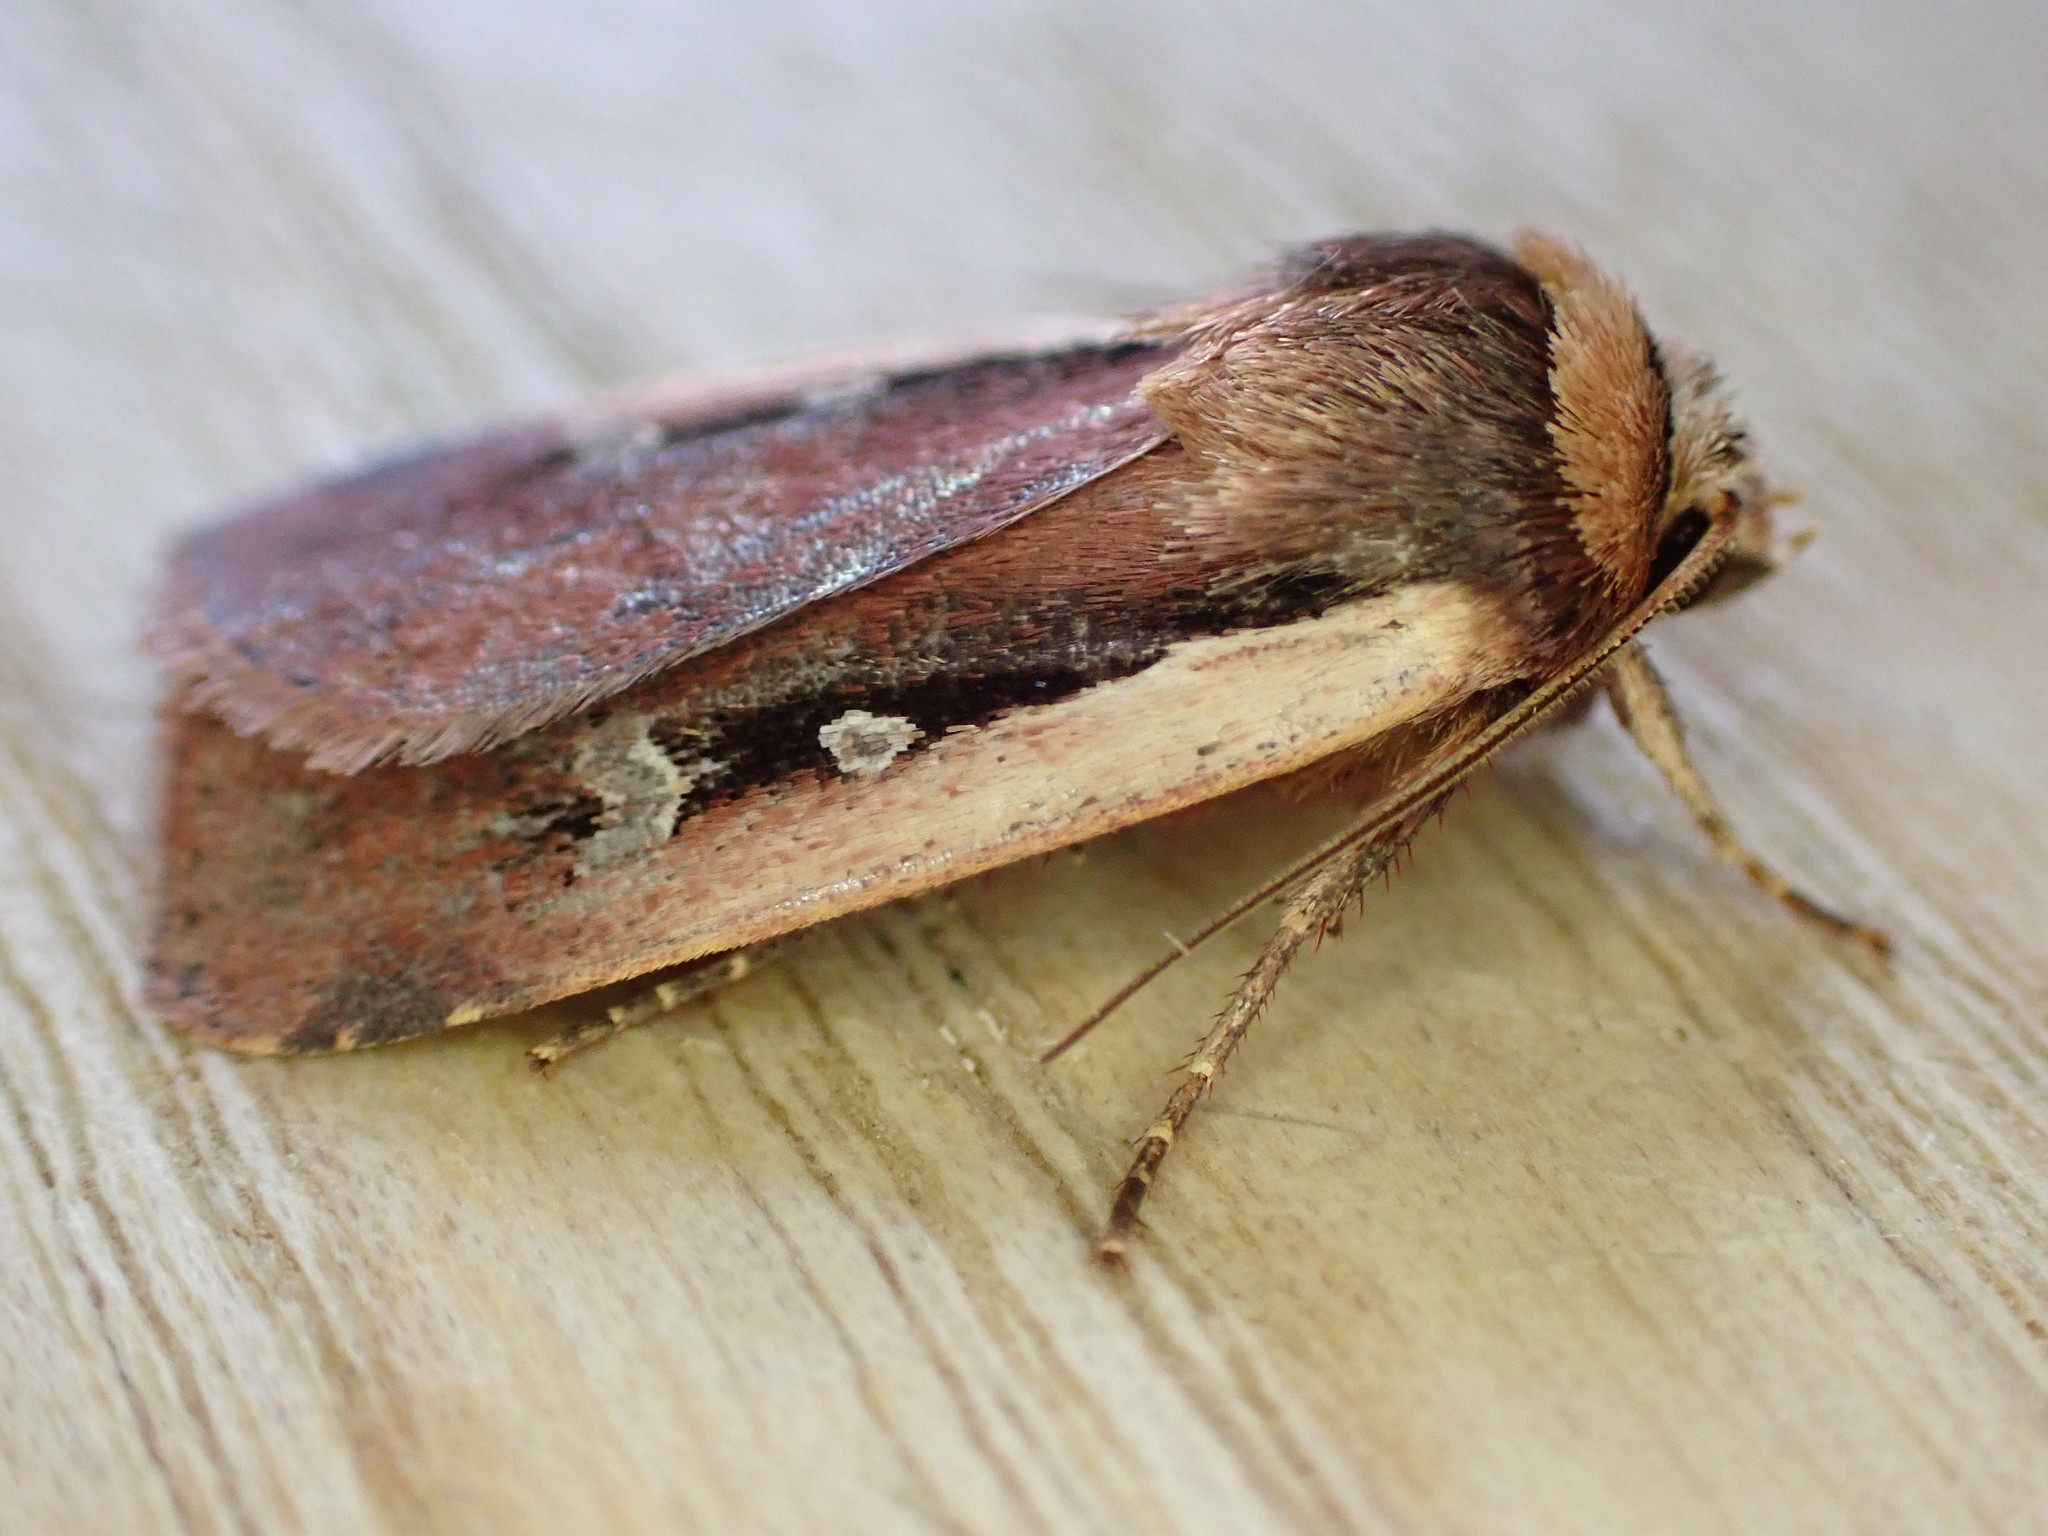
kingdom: Animalia
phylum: Arthropoda
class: Insecta
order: Lepidoptera
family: Noctuidae
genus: Ochropleura
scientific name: Ochropleura plecta
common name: Flame shoulder
